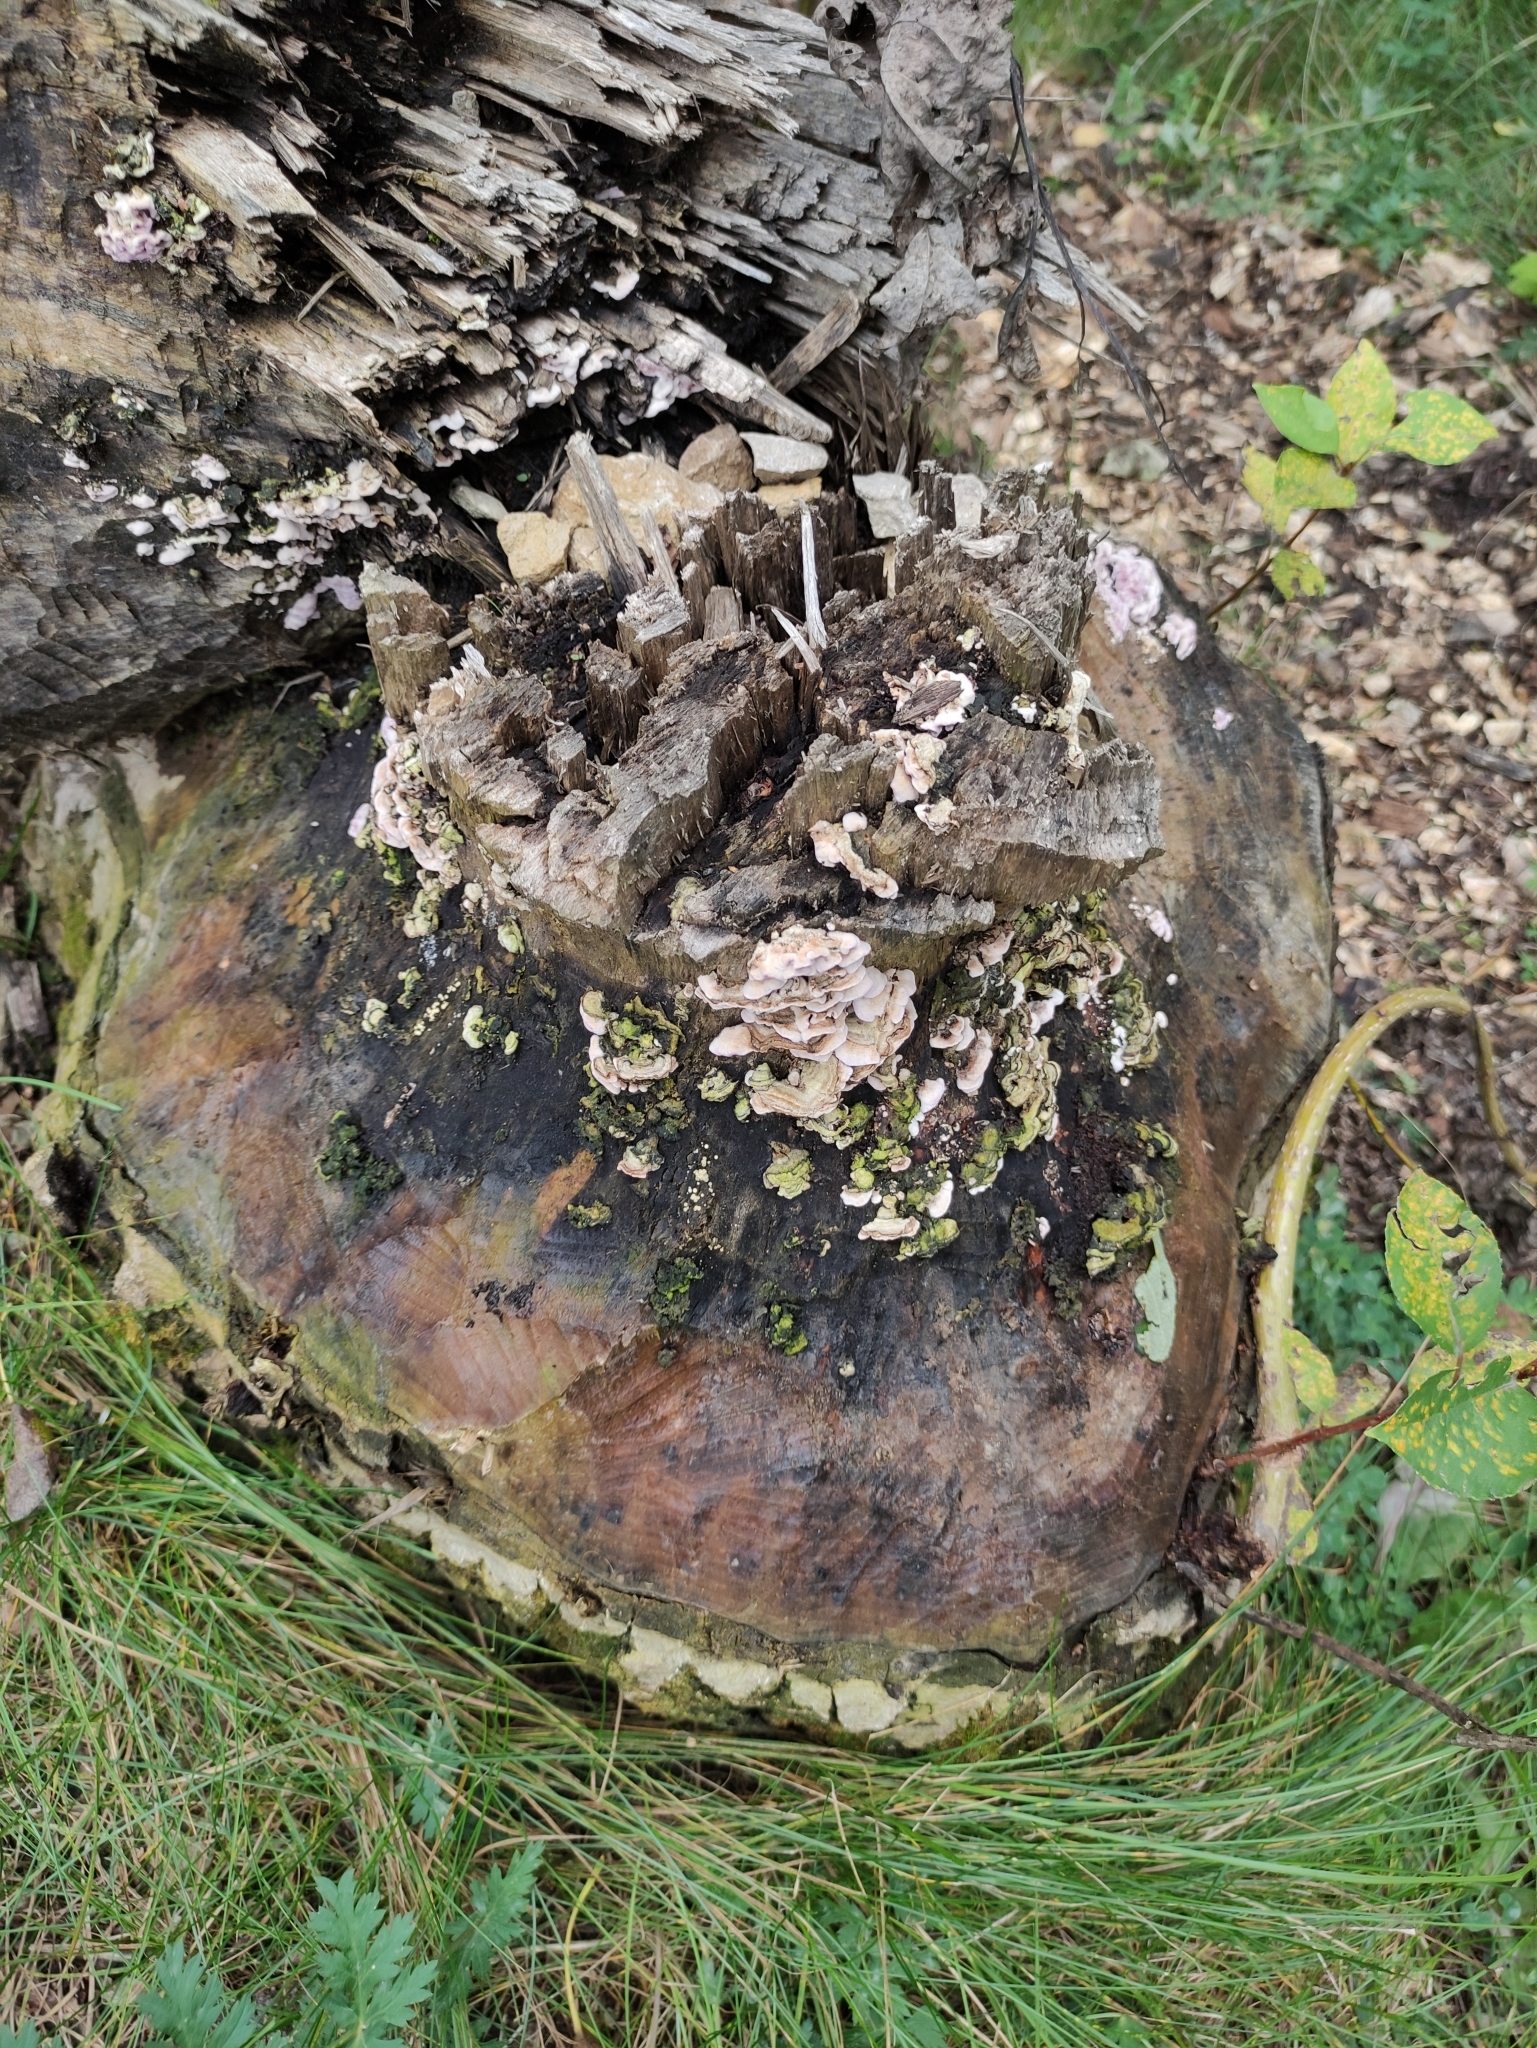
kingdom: Animalia
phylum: Chordata
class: Mammalia
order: Rodentia
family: Castoridae
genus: Castor
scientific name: Castor fiber
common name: Eurasian beaver
